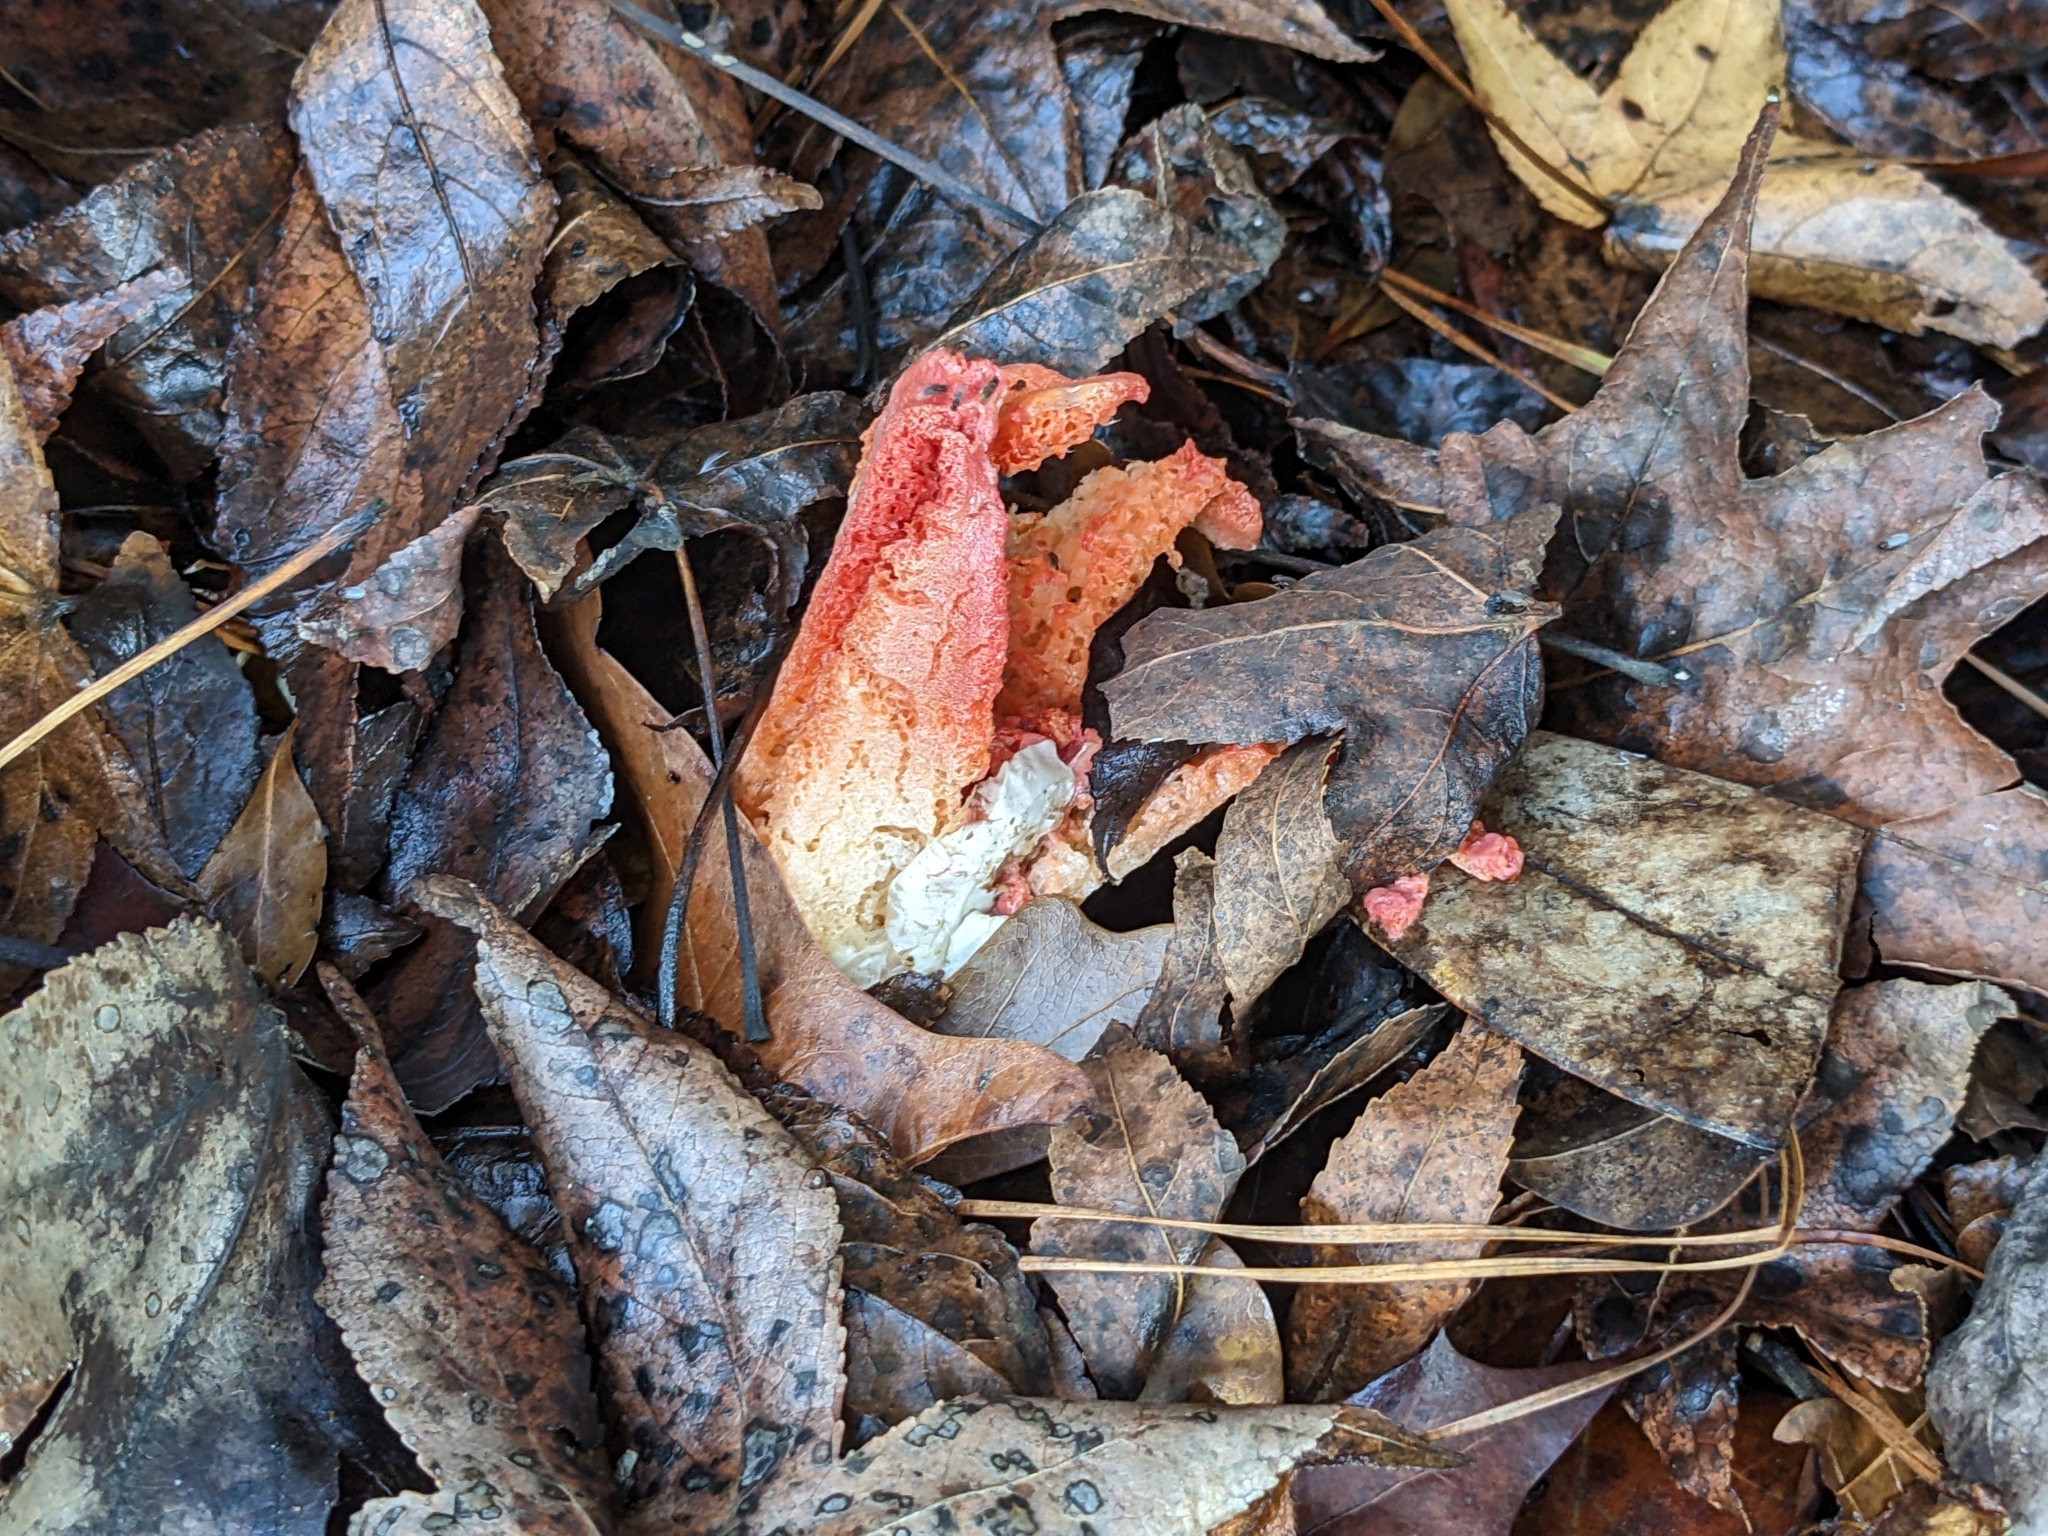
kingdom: Fungi
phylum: Basidiomycota
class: Agaricomycetes
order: Phallales
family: Phallaceae
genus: Clathrus
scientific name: Clathrus columnatus
